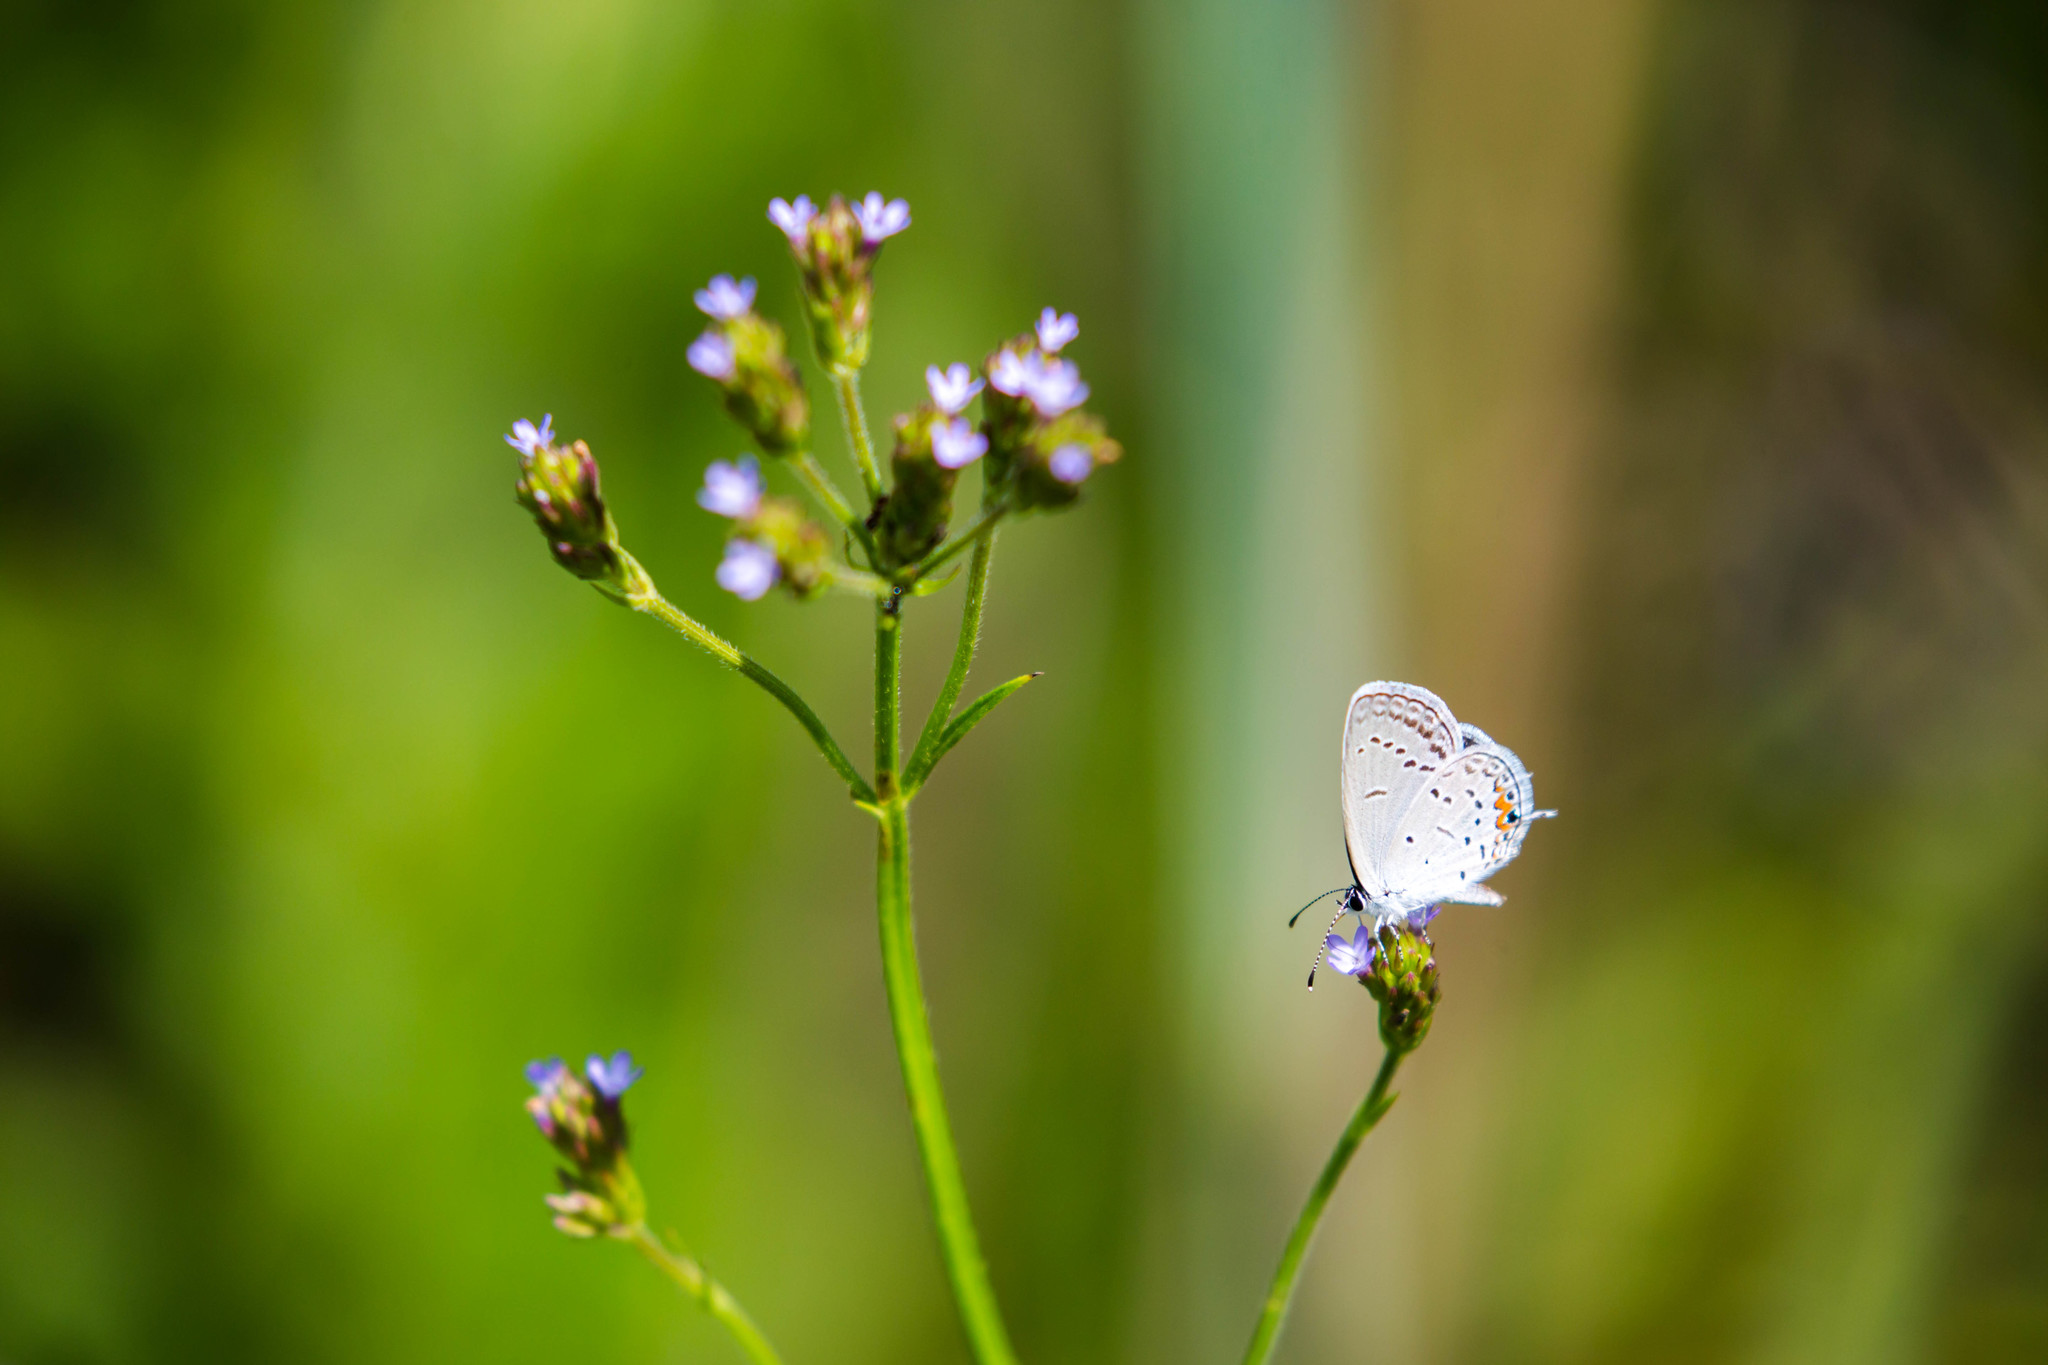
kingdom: Animalia
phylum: Arthropoda
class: Insecta
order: Lepidoptera
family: Lycaenidae
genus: Elkalyce
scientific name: Elkalyce comyntas
